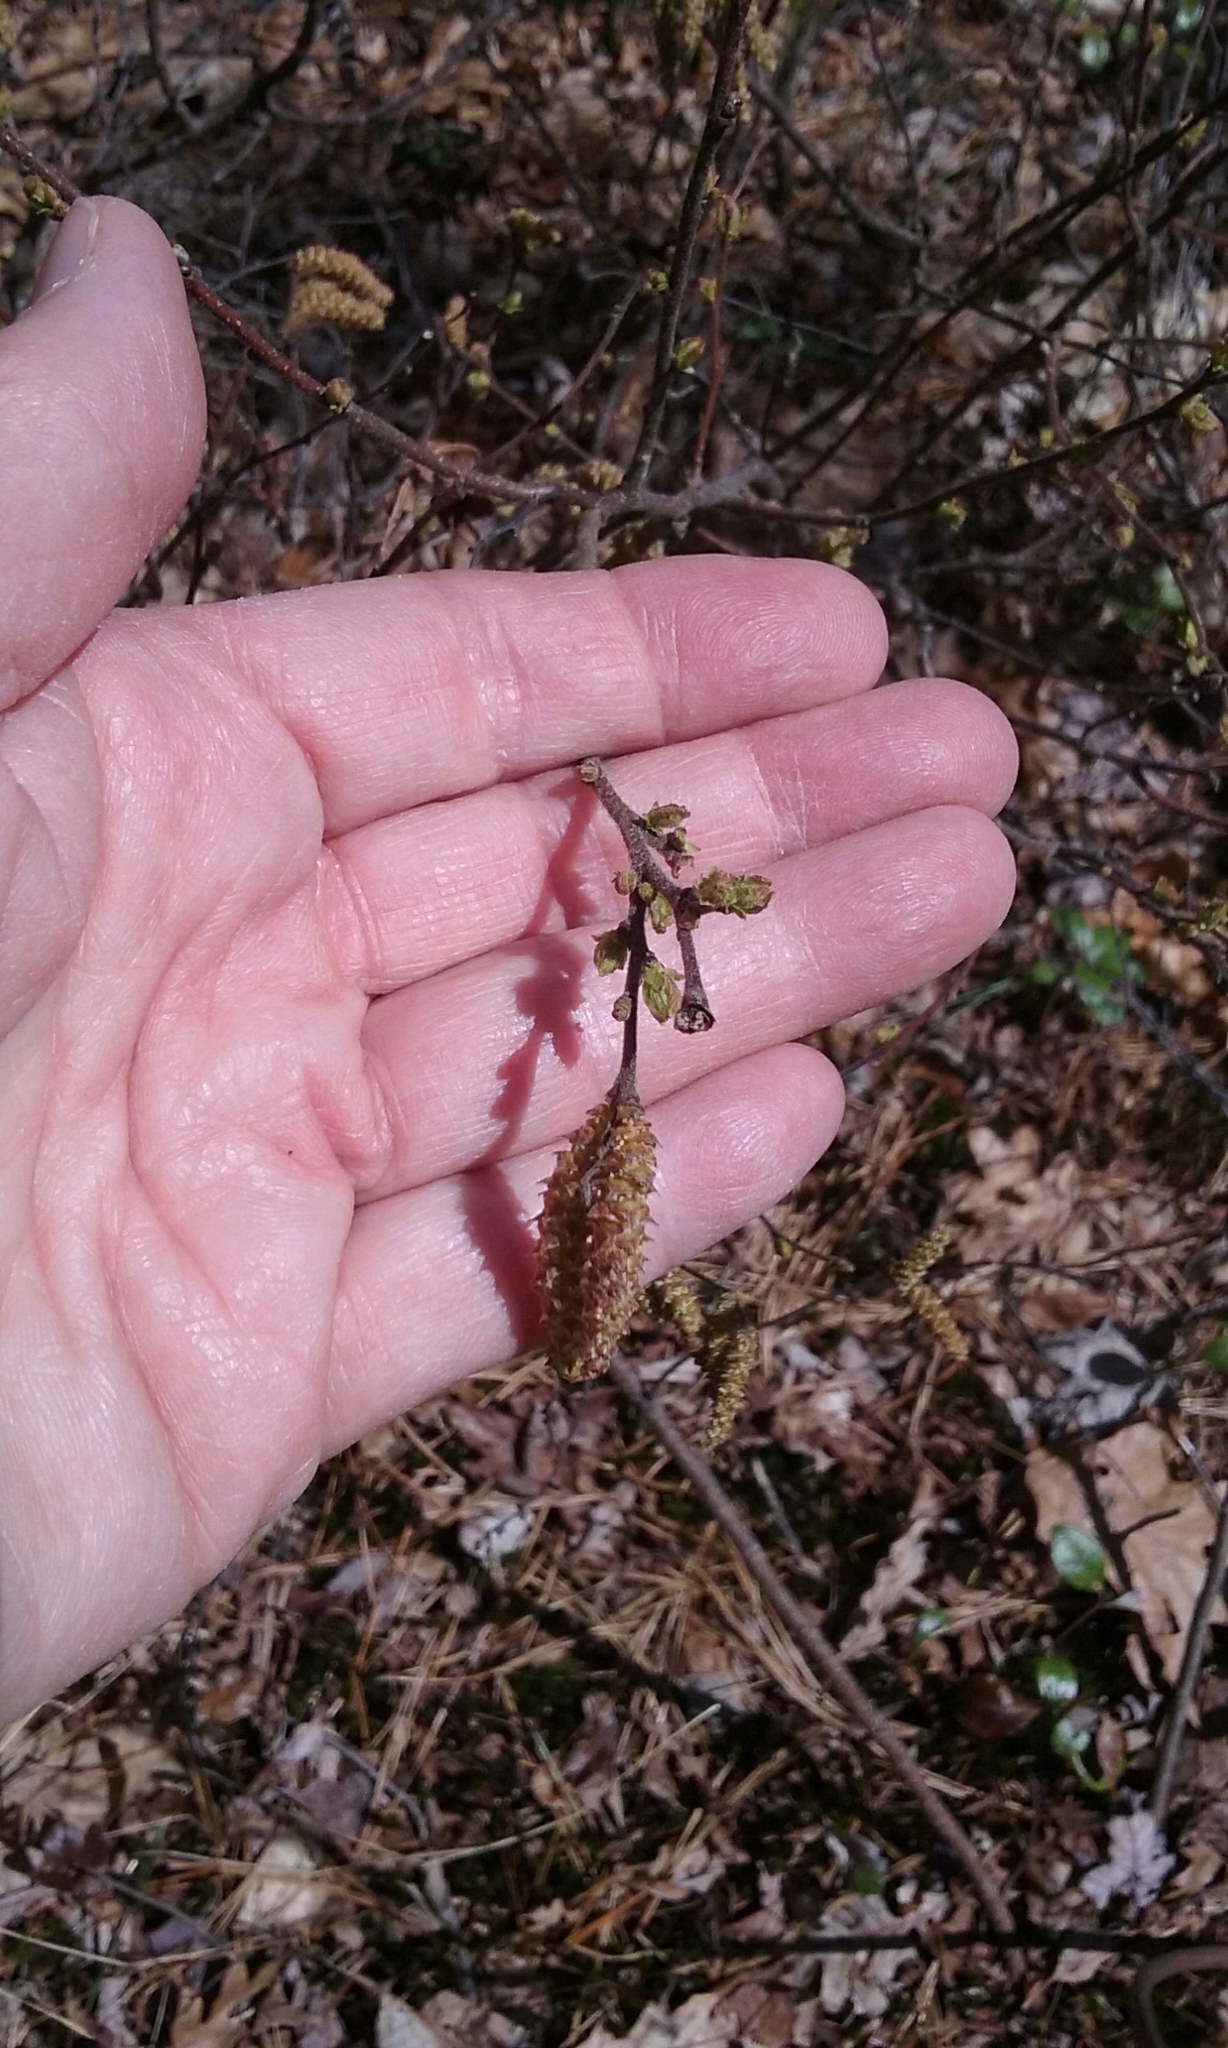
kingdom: Plantae
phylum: Tracheophyta
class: Magnoliopsida
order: Fagales
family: Myricaceae
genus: Comptonia
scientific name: Comptonia peregrina
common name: Sweet-fern
